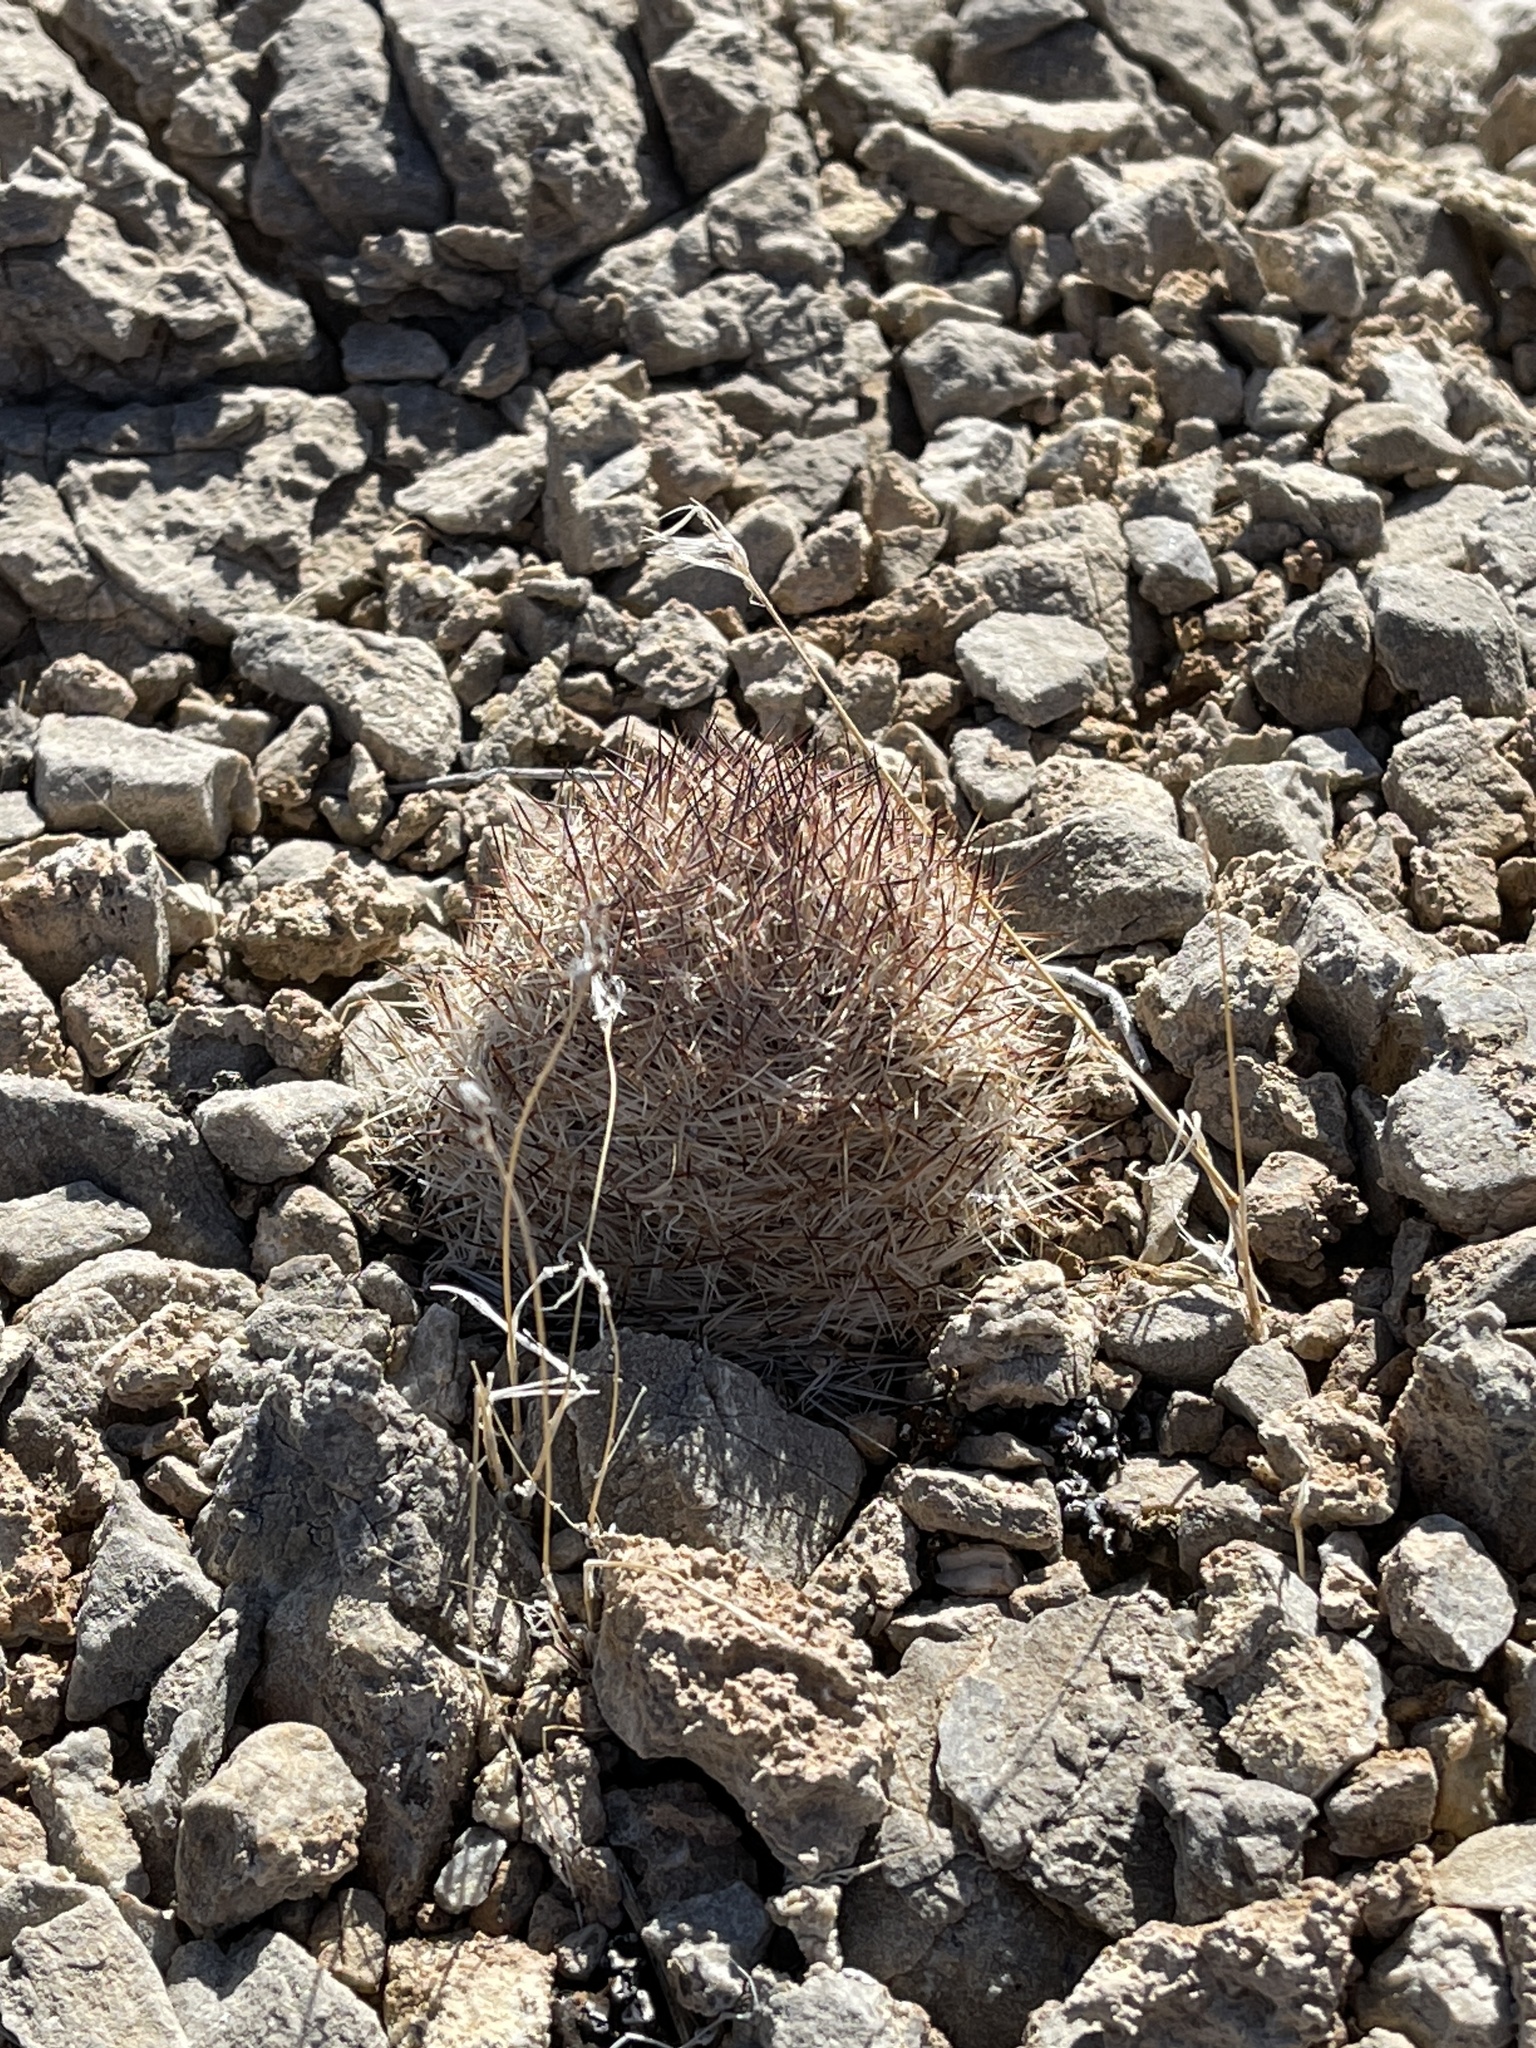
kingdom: Plantae
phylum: Tracheophyta
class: Magnoliopsida
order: Caryophyllales
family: Cactaceae
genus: Pelecyphora
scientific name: Pelecyphora dasyacantha
